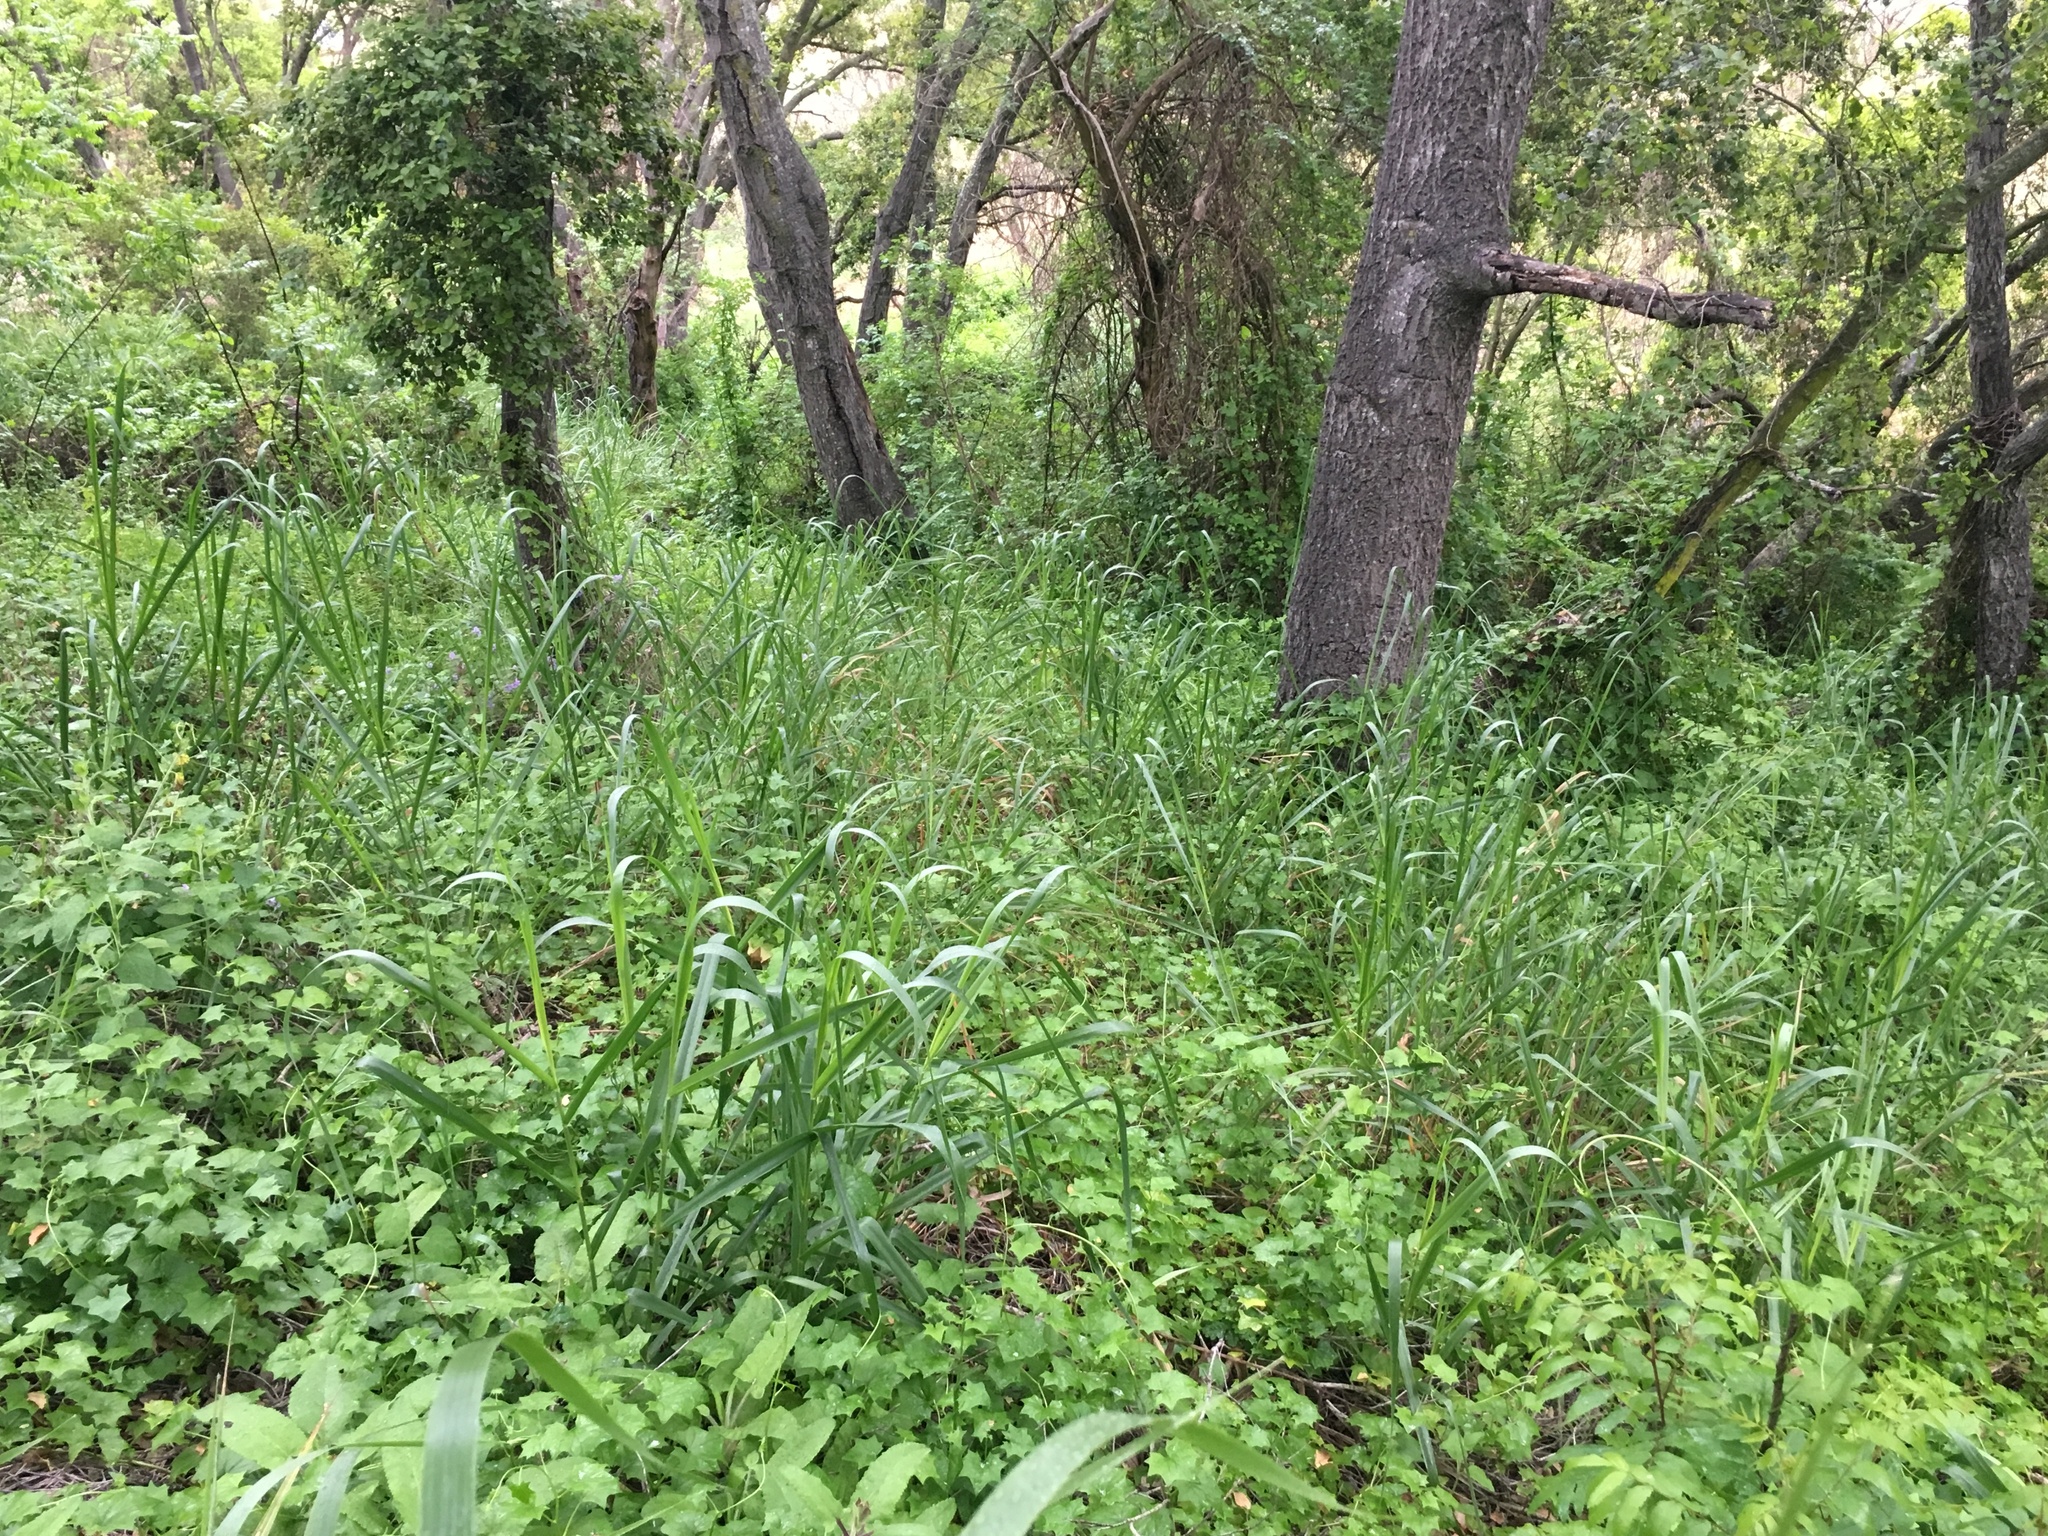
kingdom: Plantae
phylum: Tracheophyta
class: Magnoliopsida
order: Asterales
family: Asteraceae
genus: Delairea
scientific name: Delairea odorata
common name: Cape-ivy
